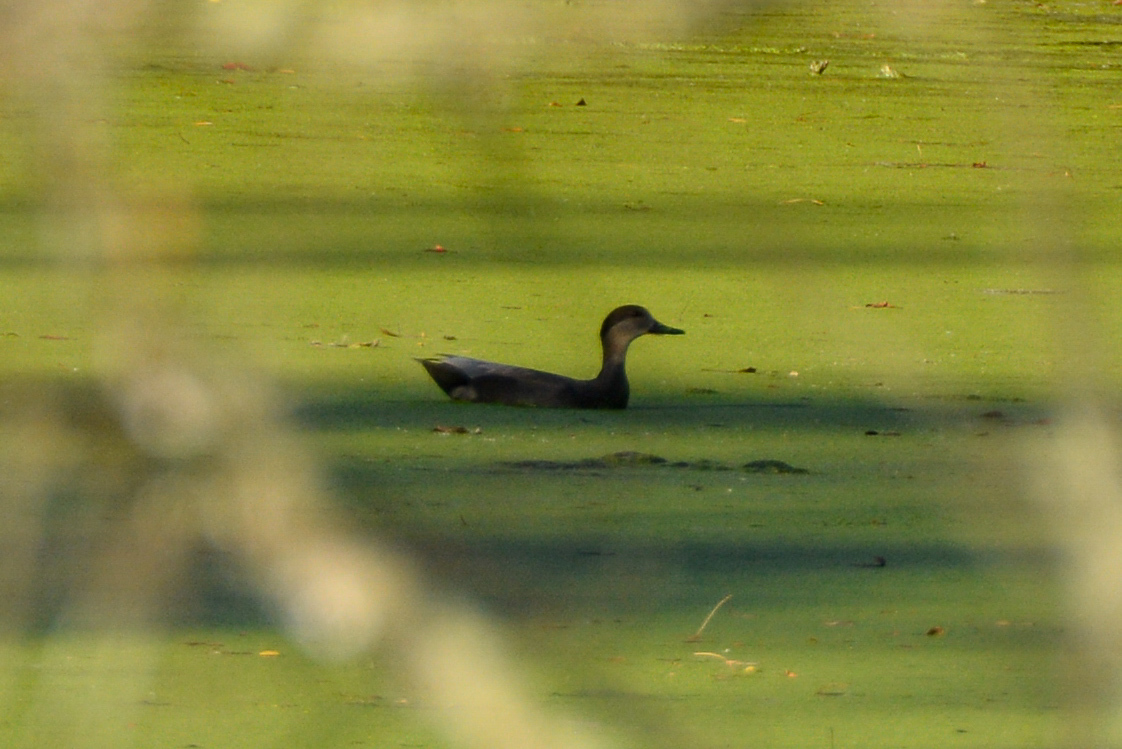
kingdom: Animalia
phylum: Chordata
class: Aves
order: Anseriformes
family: Anatidae
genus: Mareca
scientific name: Mareca strepera
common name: Gadwall
